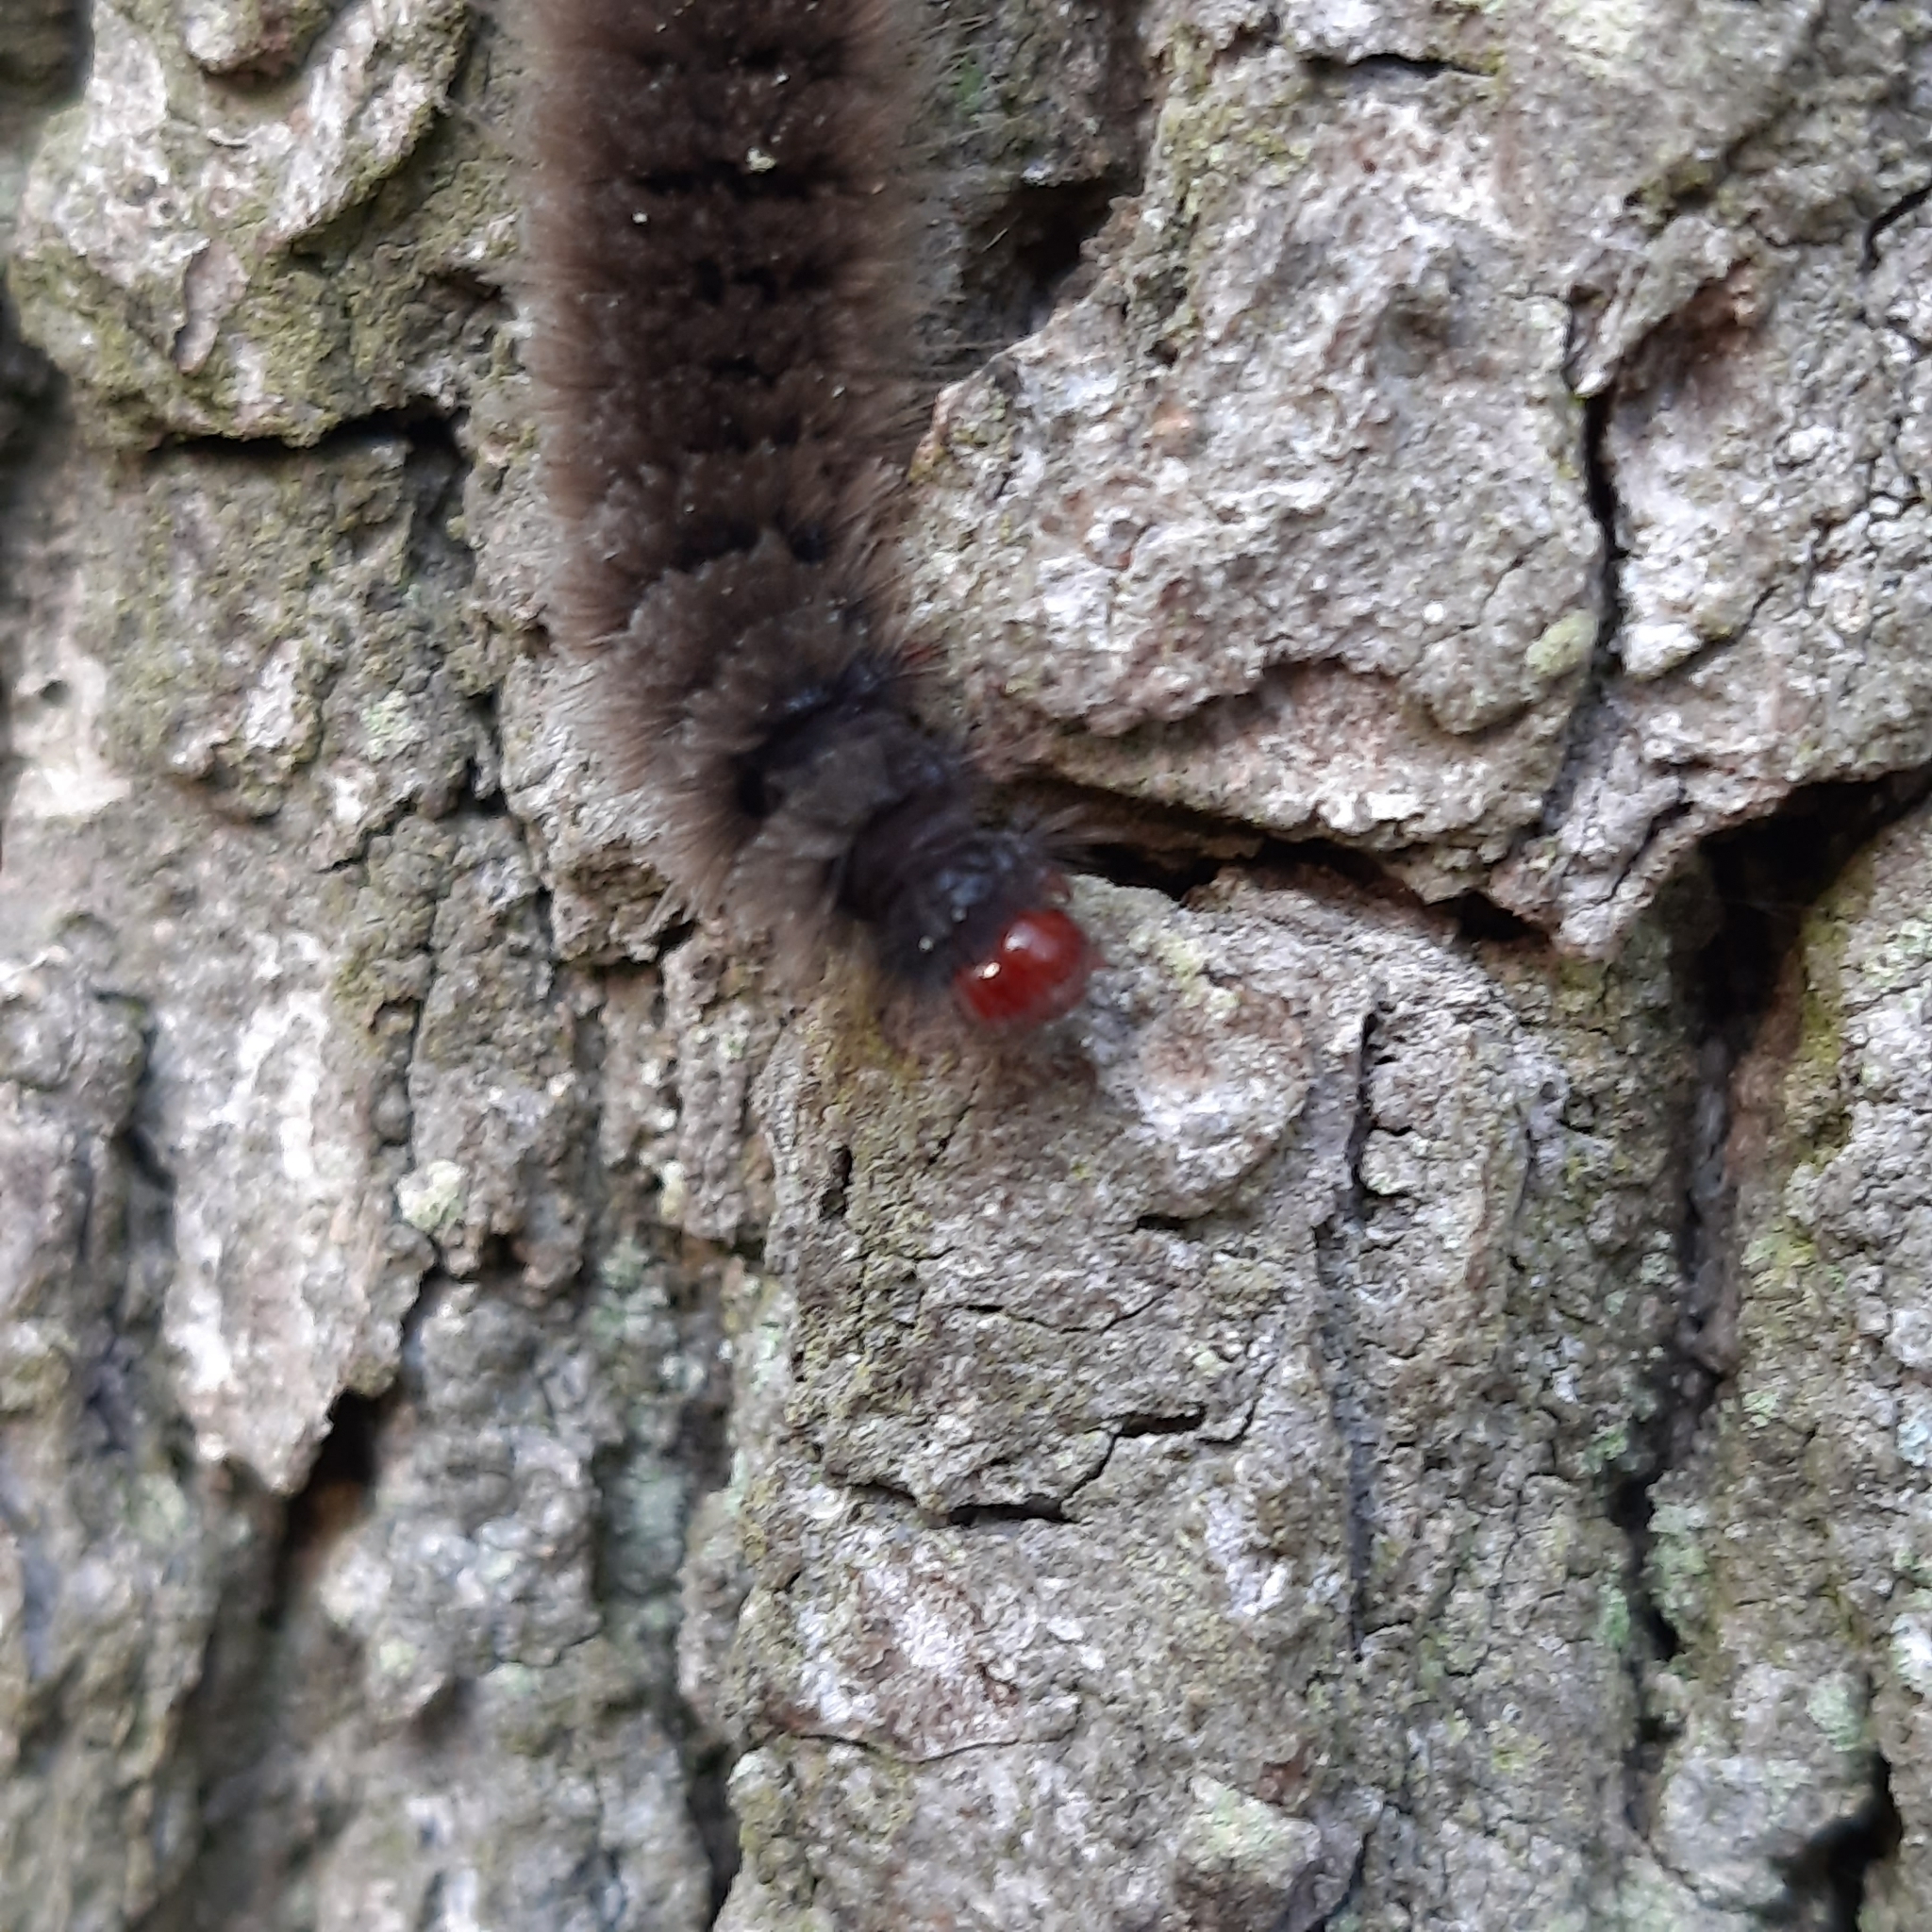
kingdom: Animalia
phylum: Arthropoda
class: Insecta
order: Lepidoptera
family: Erebidae
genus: Amata
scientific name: Amata phegea
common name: Nine-spotted
